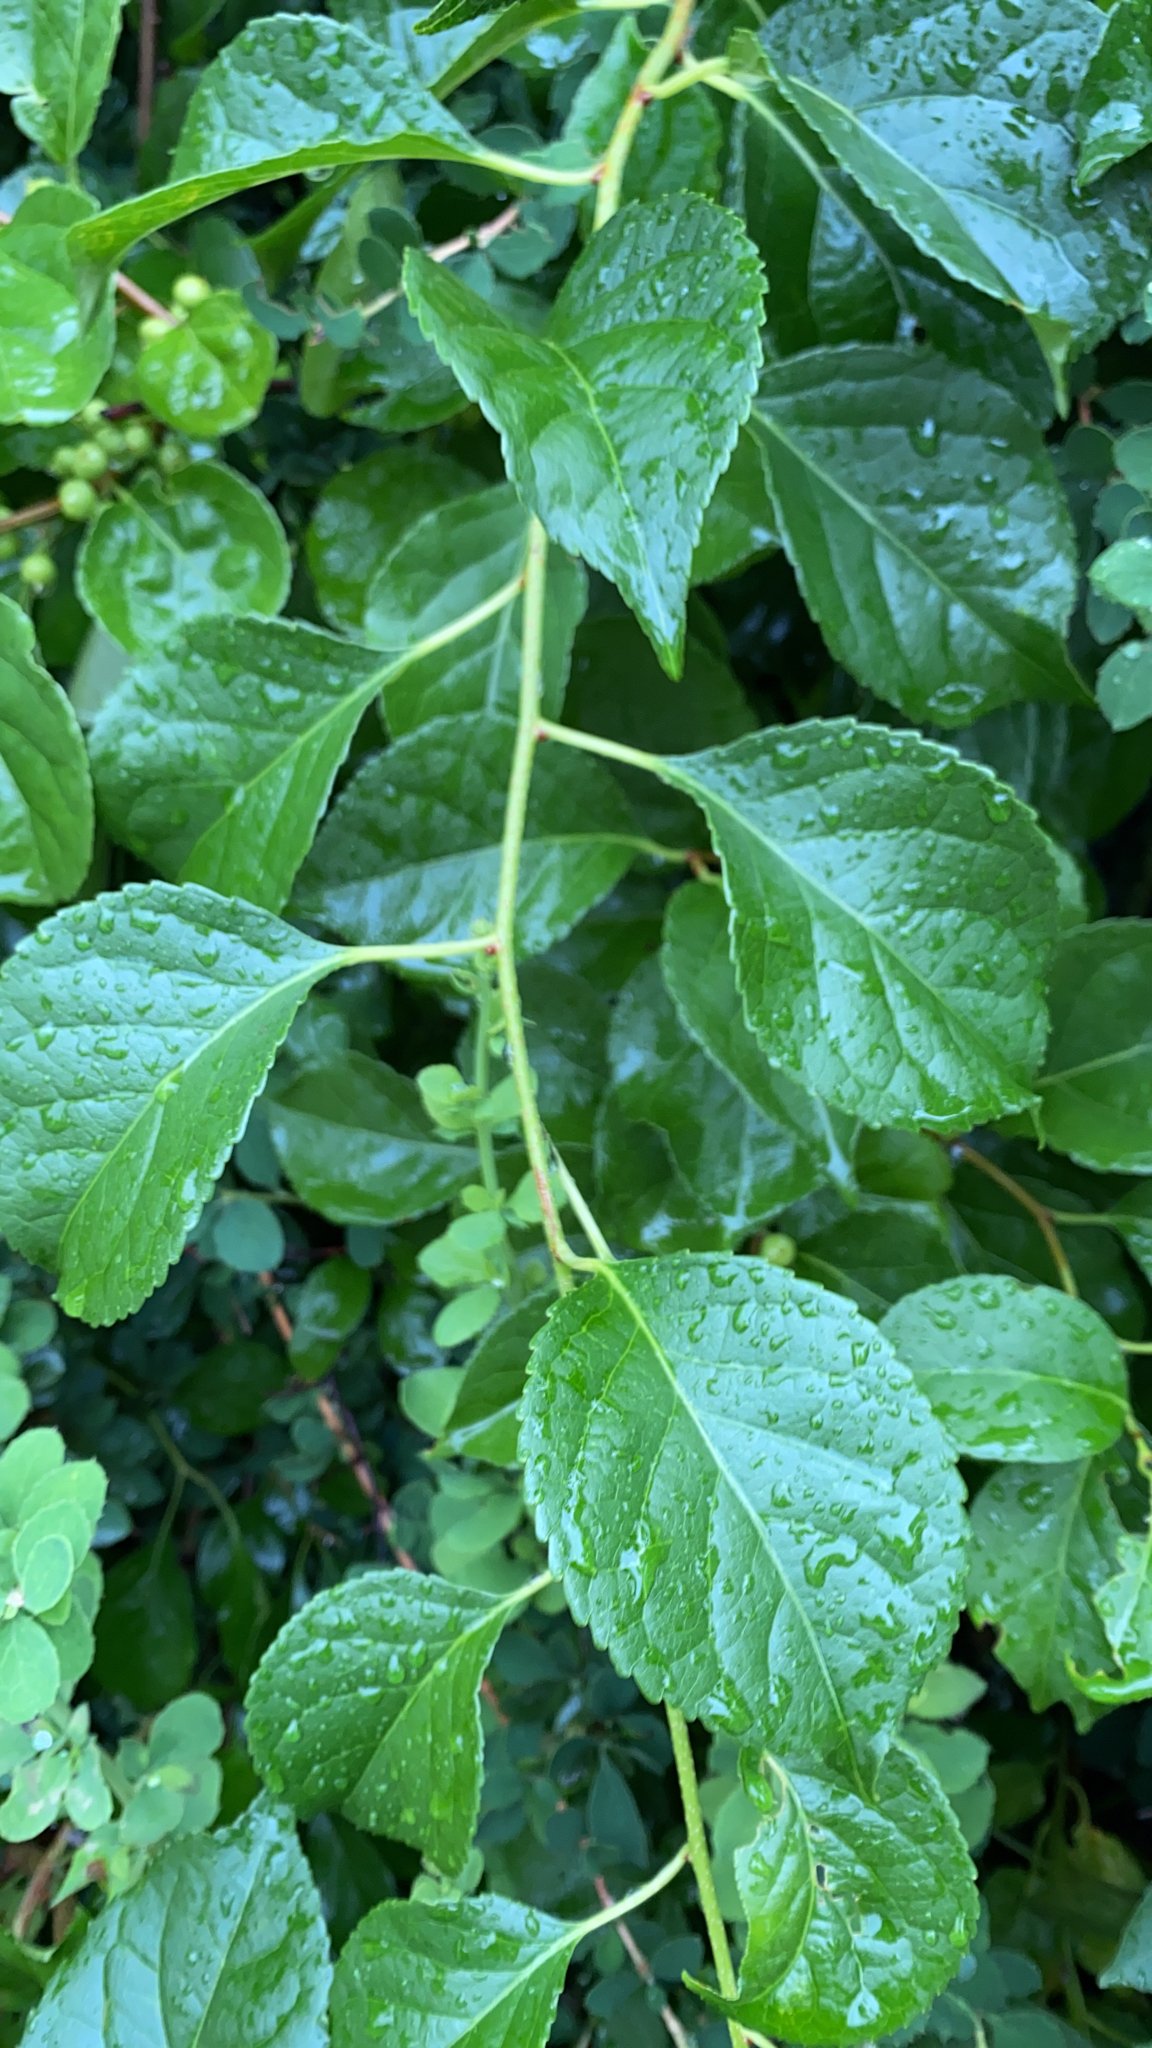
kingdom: Plantae
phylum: Tracheophyta
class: Magnoliopsida
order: Celastrales
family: Celastraceae
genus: Celastrus
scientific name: Celastrus orbiculatus
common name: Oriental bittersweet
